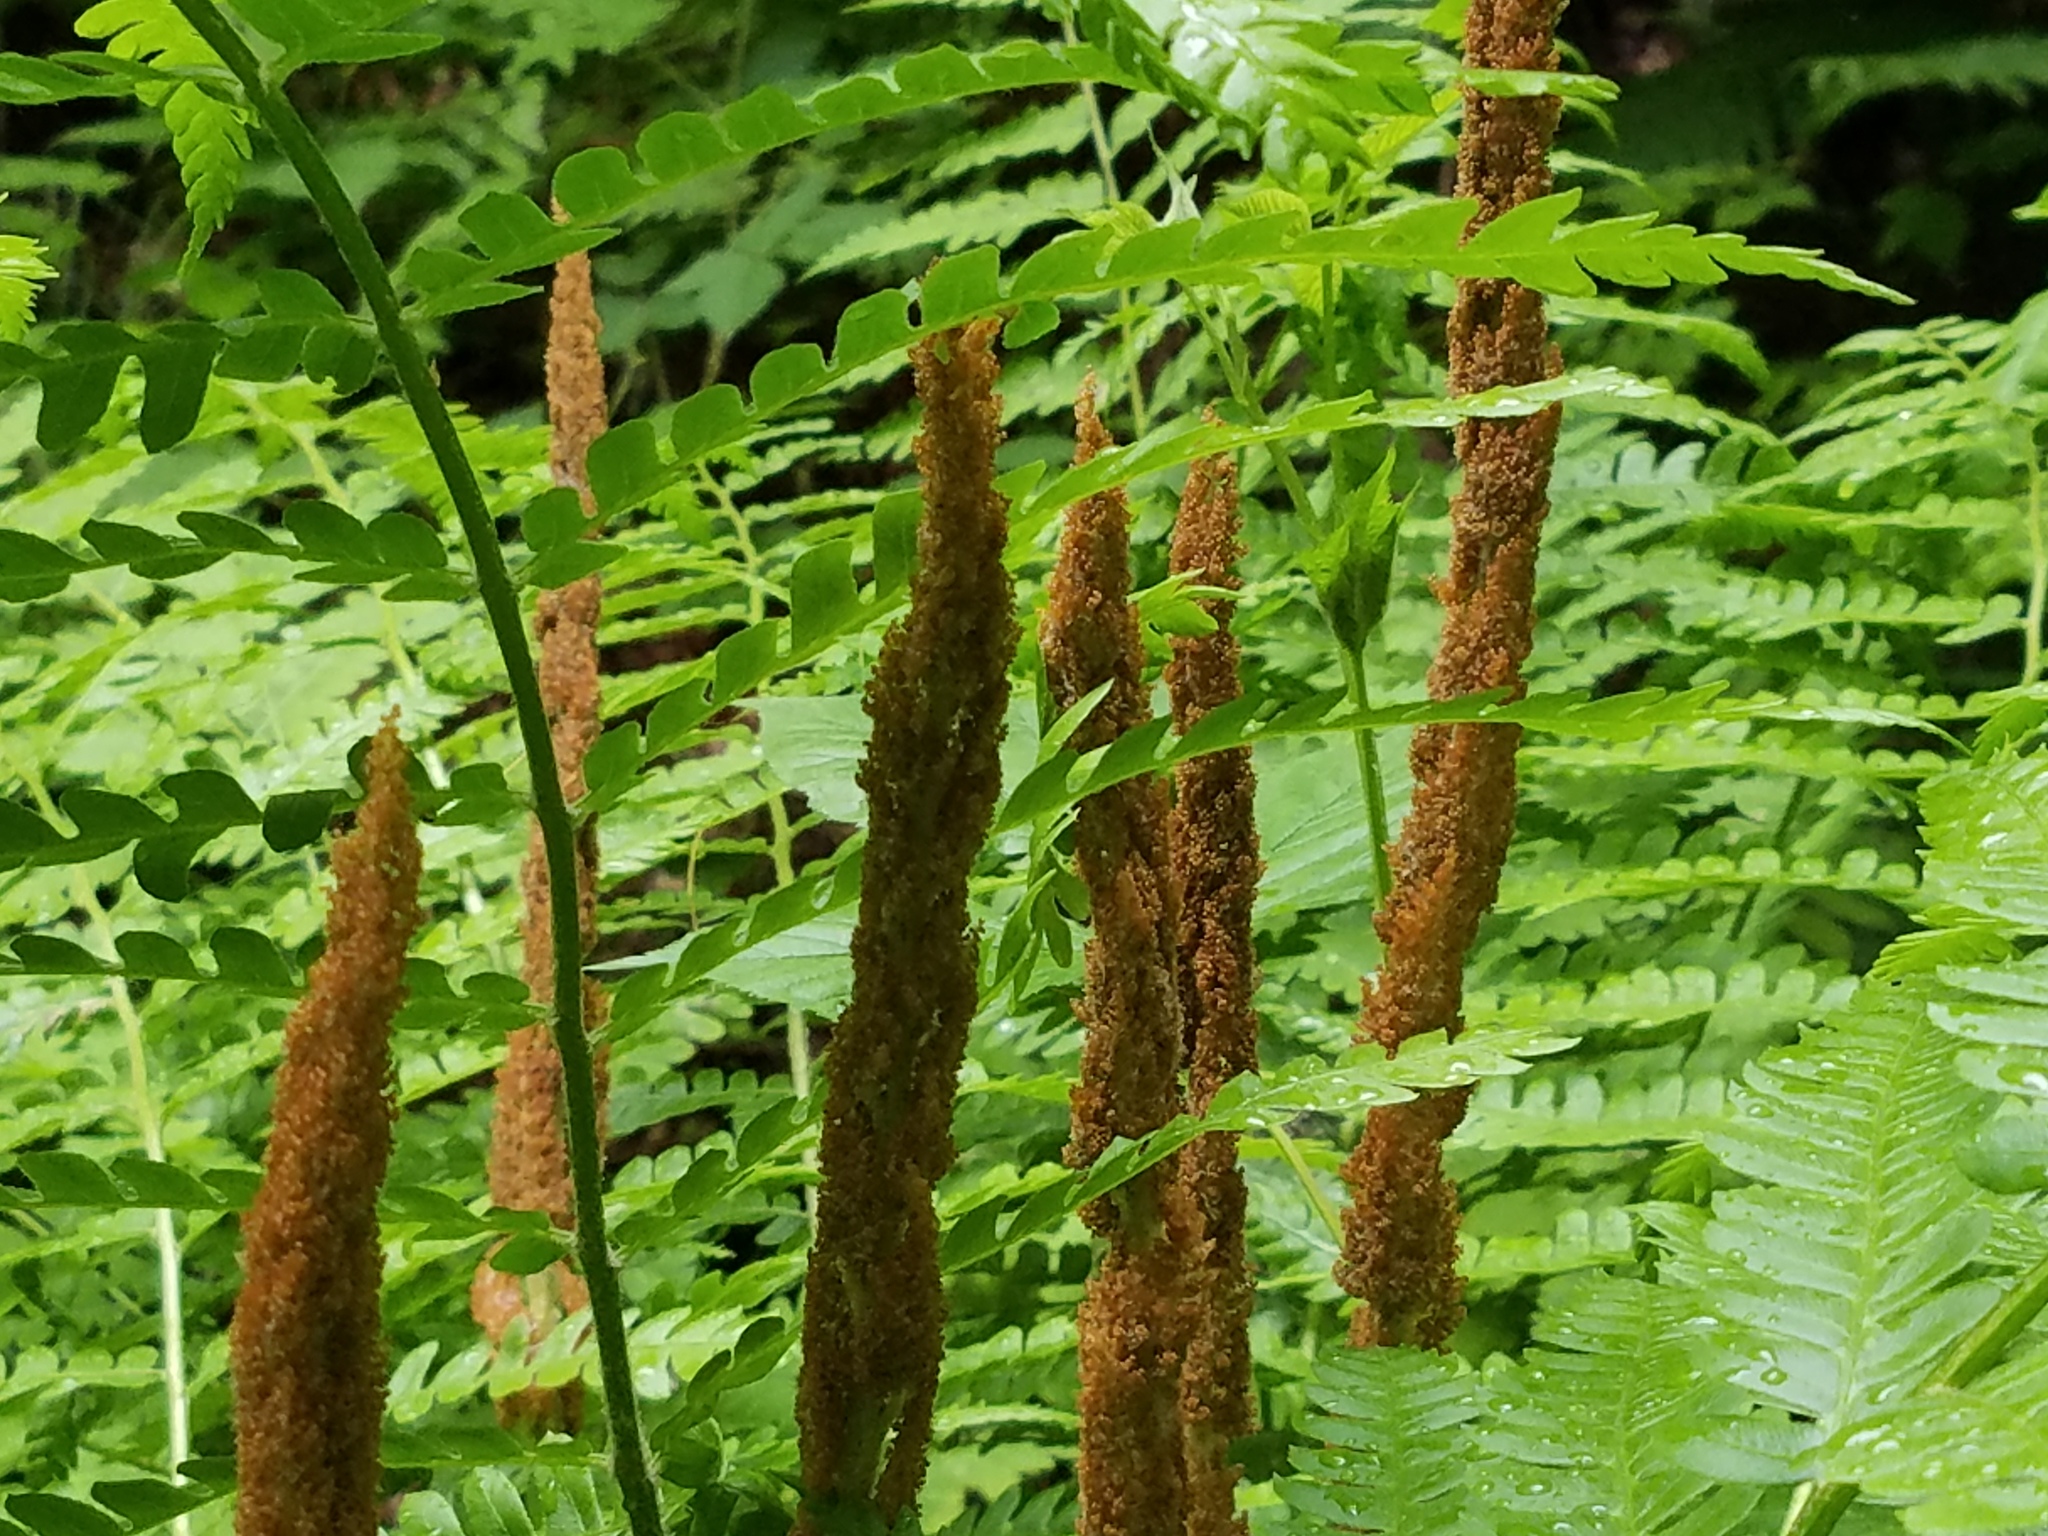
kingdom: Plantae
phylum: Tracheophyta
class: Polypodiopsida
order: Osmundales
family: Osmundaceae
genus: Osmundastrum
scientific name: Osmundastrum cinnamomeum
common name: Cinnamon fern
